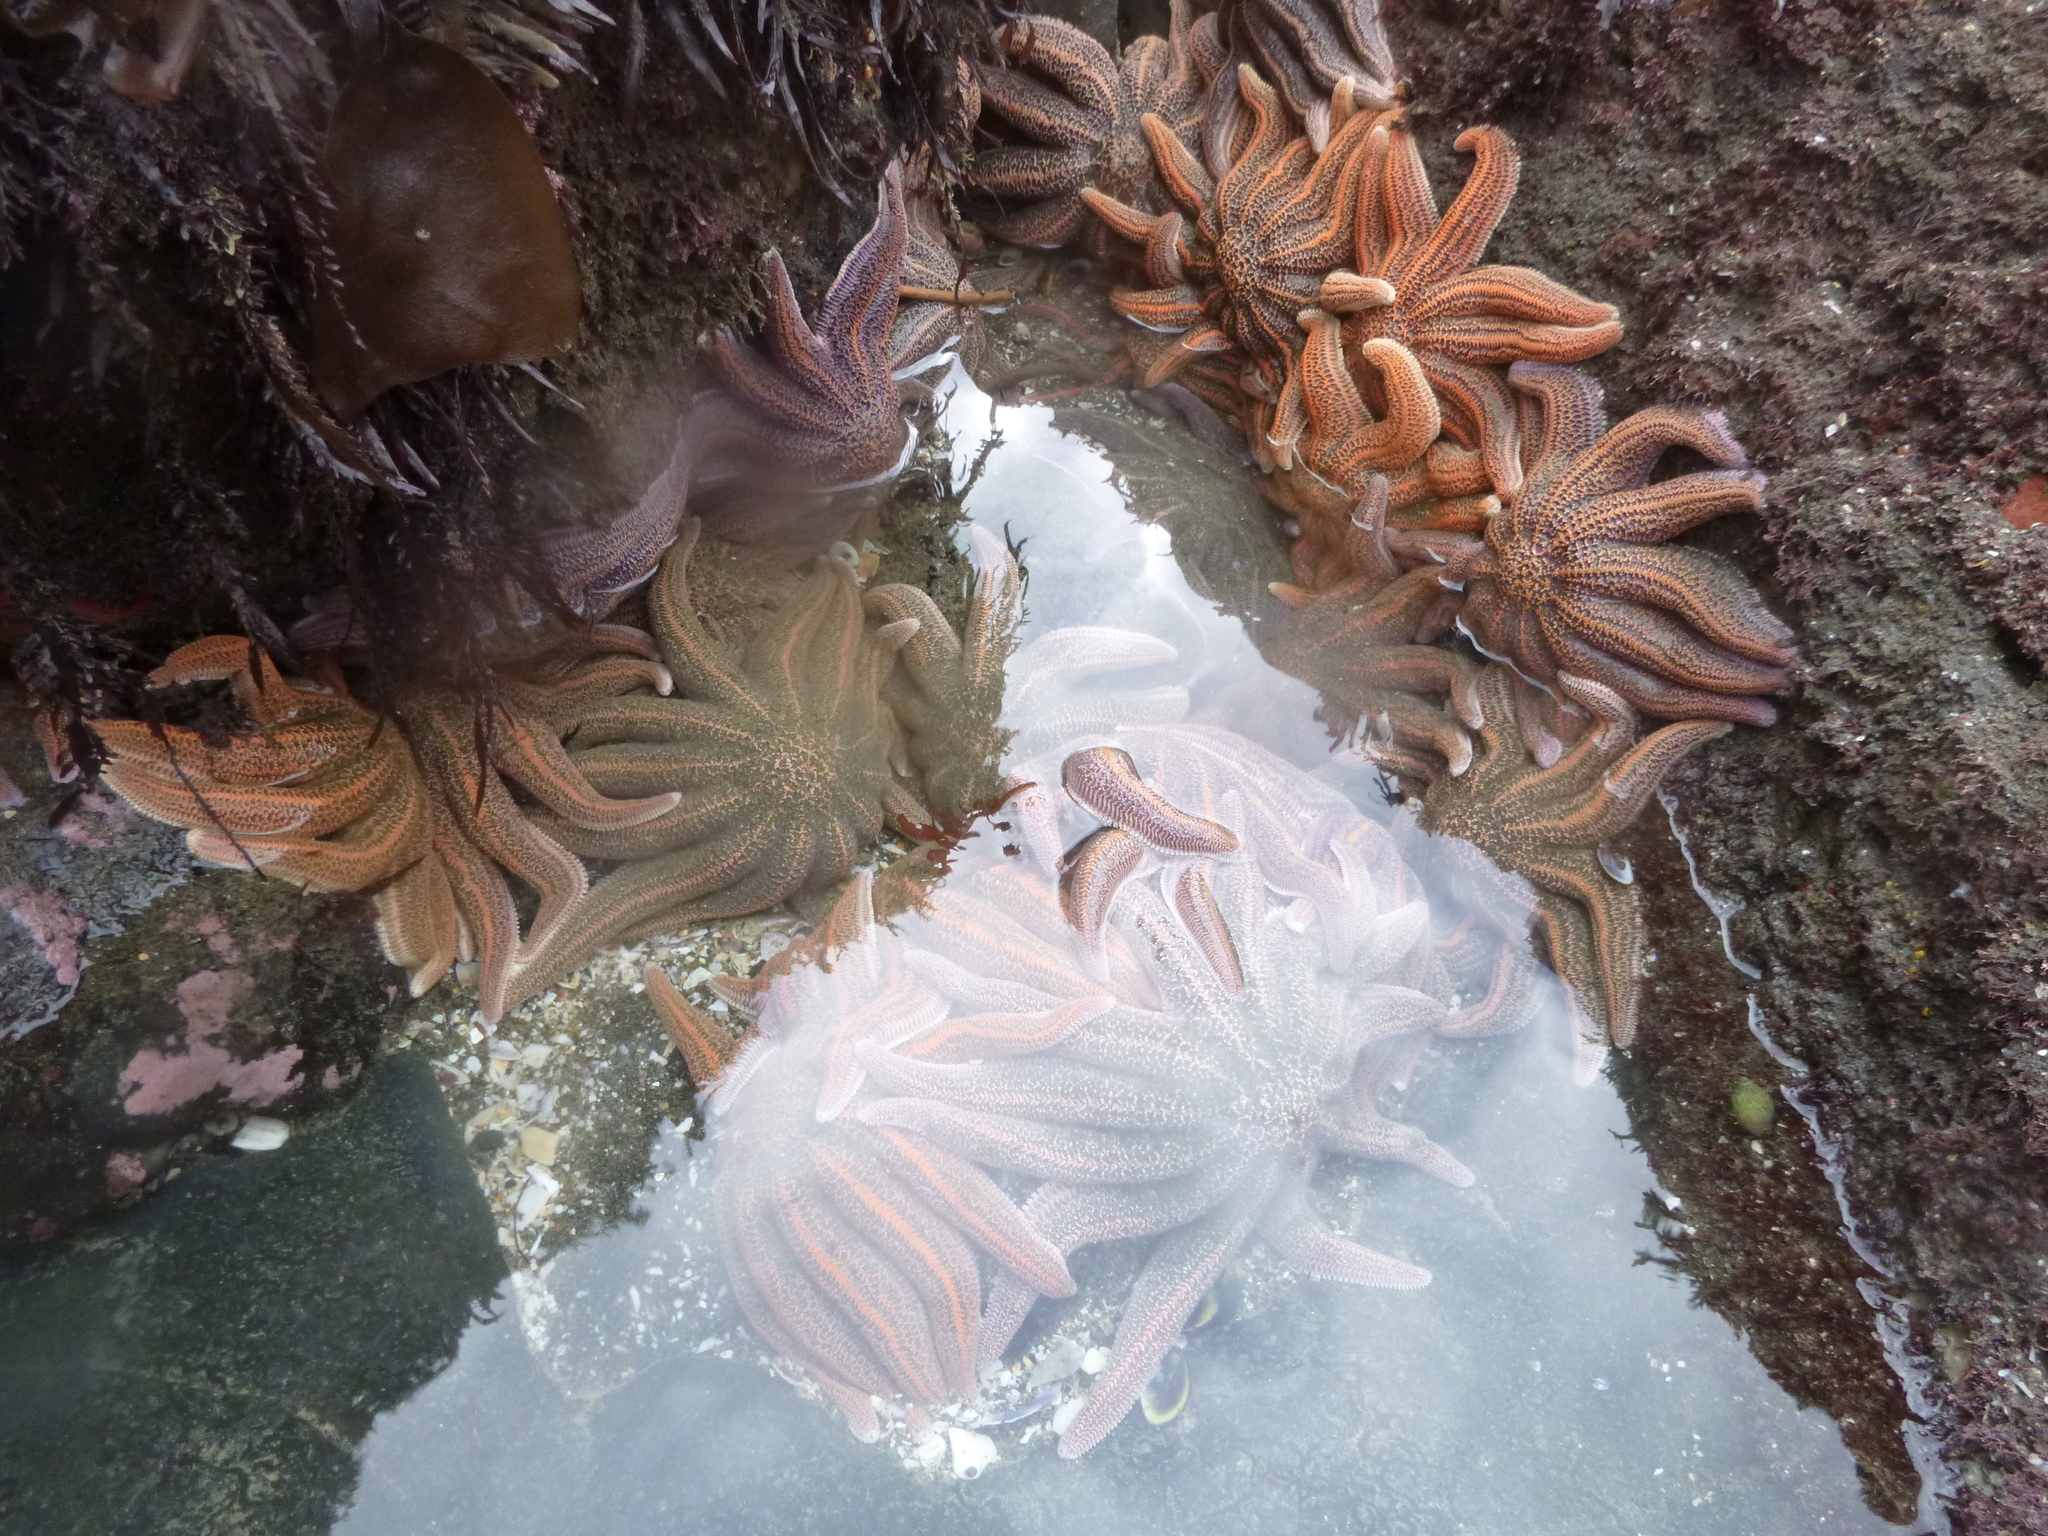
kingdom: Animalia
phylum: Echinodermata
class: Asteroidea
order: Forcipulatida
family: Stichasteridae
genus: Stichaster
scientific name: Stichaster australis
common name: Reef starfish
